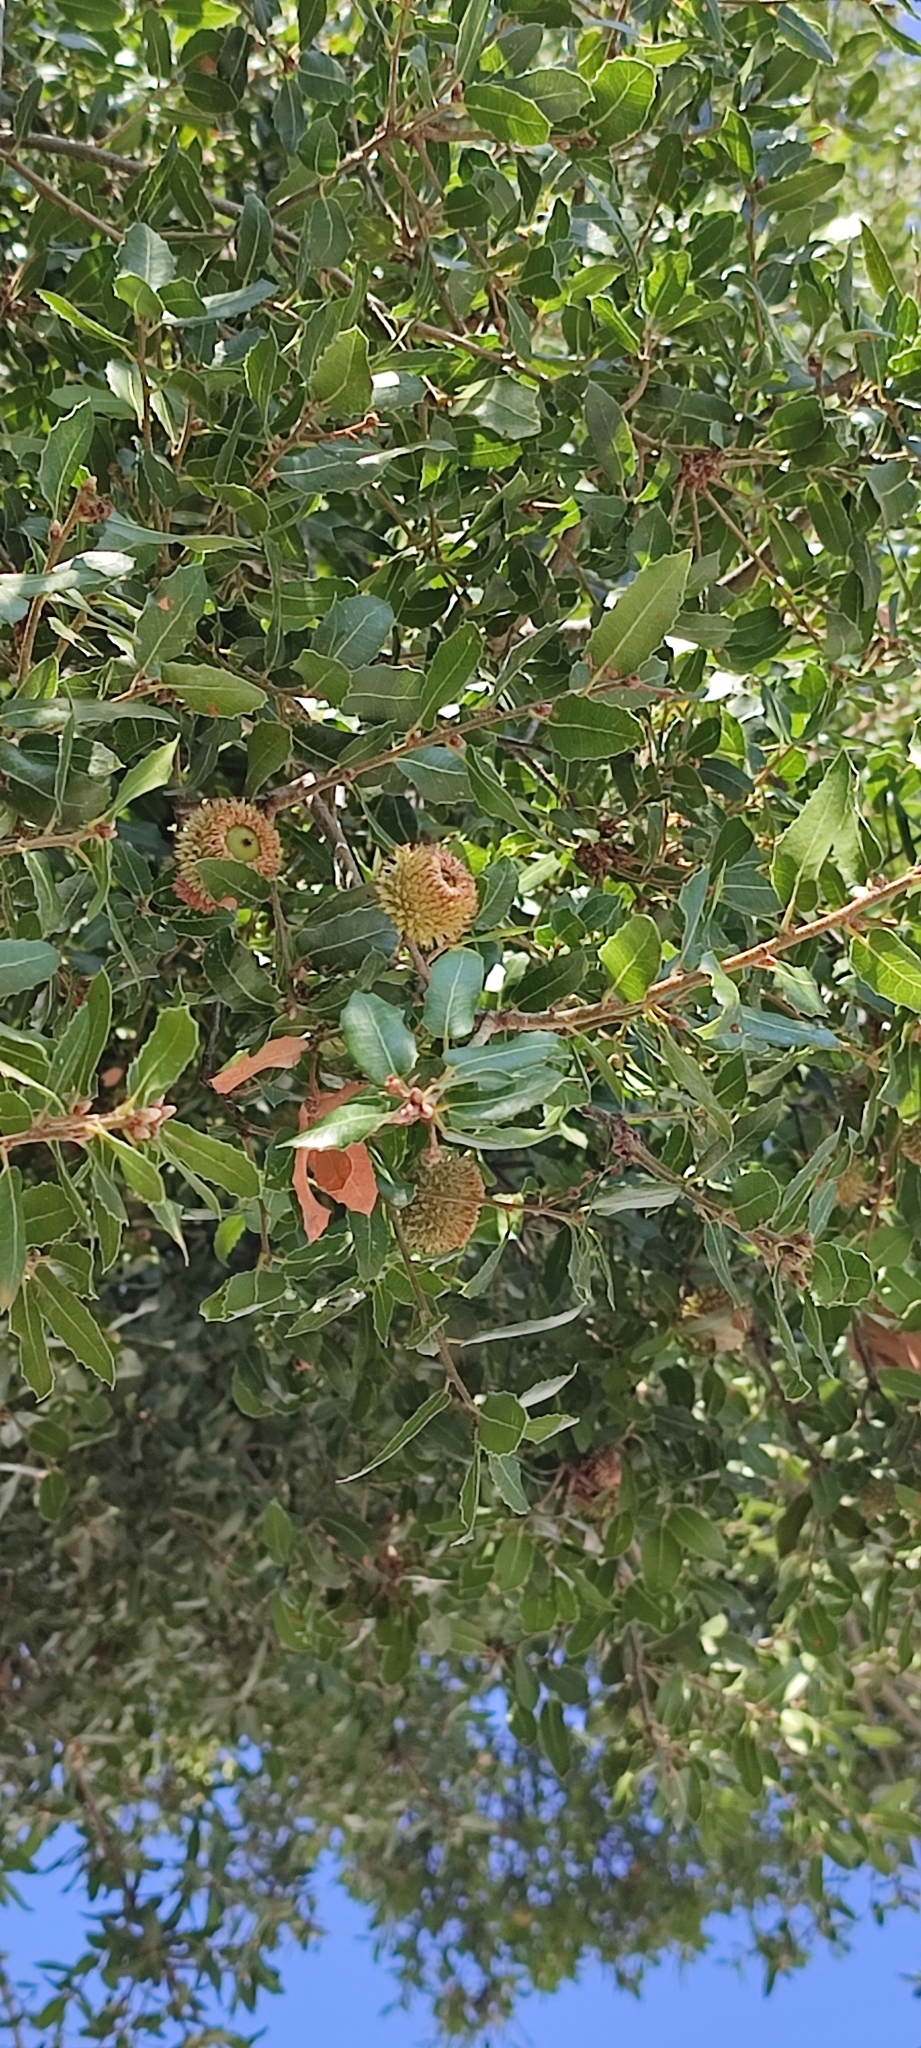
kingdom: Plantae
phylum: Tracheophyta
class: Magnoliopsida
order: Fagales
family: Fagaceae
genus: Quercus
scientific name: Quercus coccifera
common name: Kermes oak
